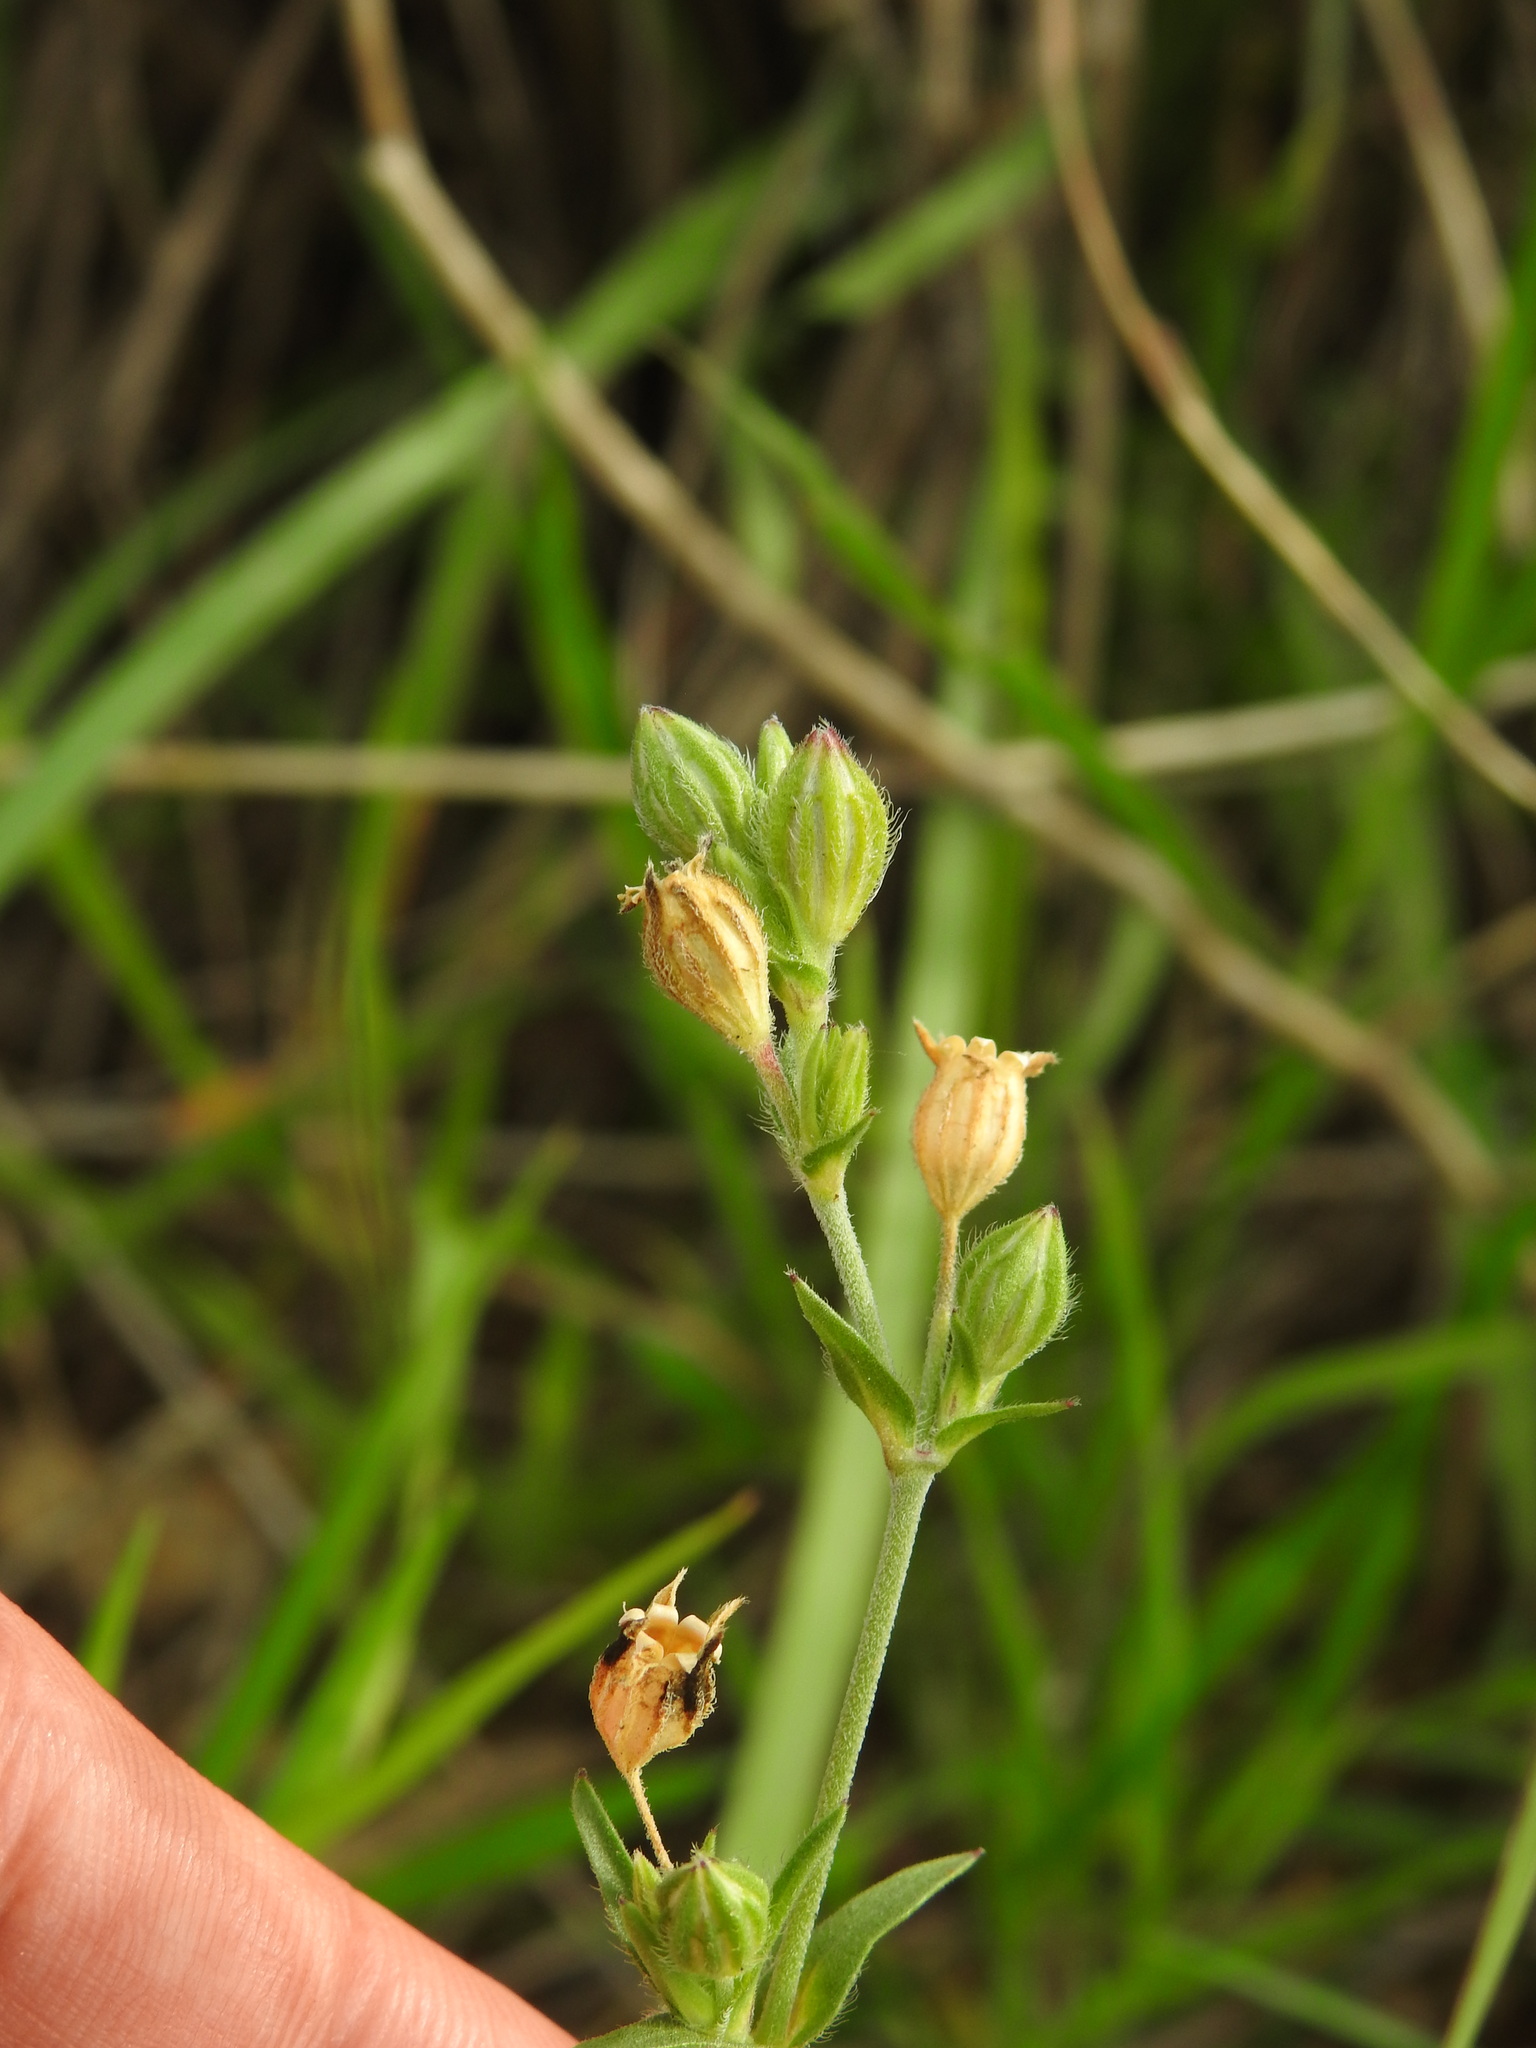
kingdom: Plantae
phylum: Tracheophyta
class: Magnoliopsida
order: Caryophyllales
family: Caryophyllaceae
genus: Silene
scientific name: Silene apetala
